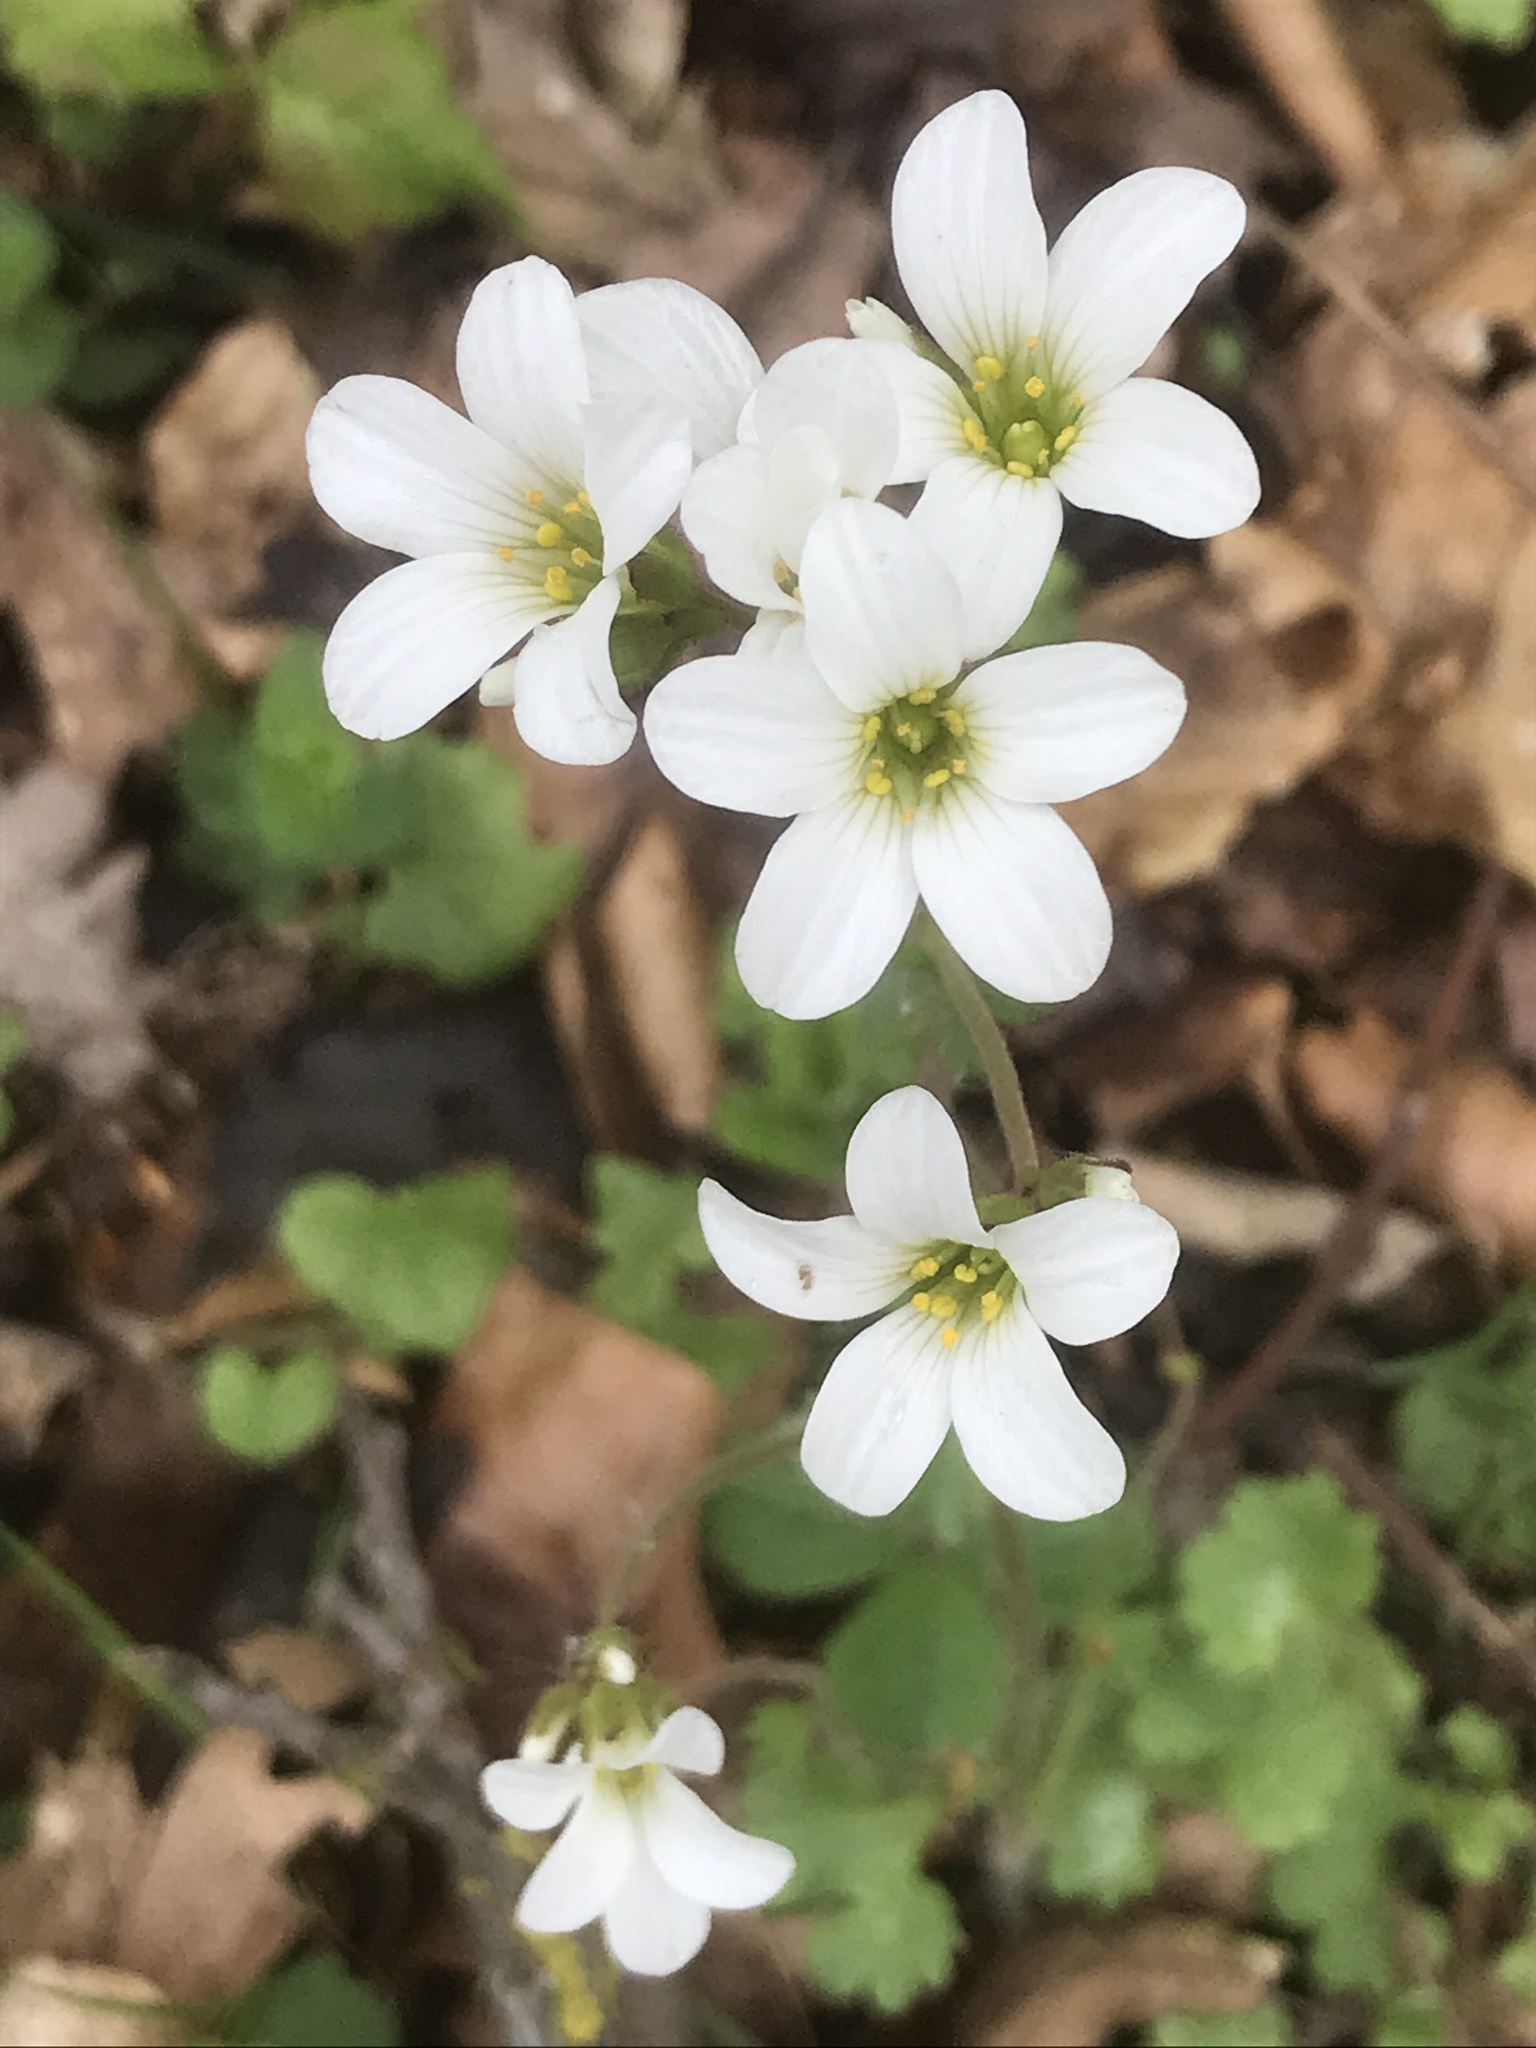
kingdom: Plantae
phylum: Tracheophyta
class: Magnoliopsida
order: Saxifragales
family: Saxifragaceae
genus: Saxifraga
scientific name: Saxifraga granulata
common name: Meadow saxifrage
